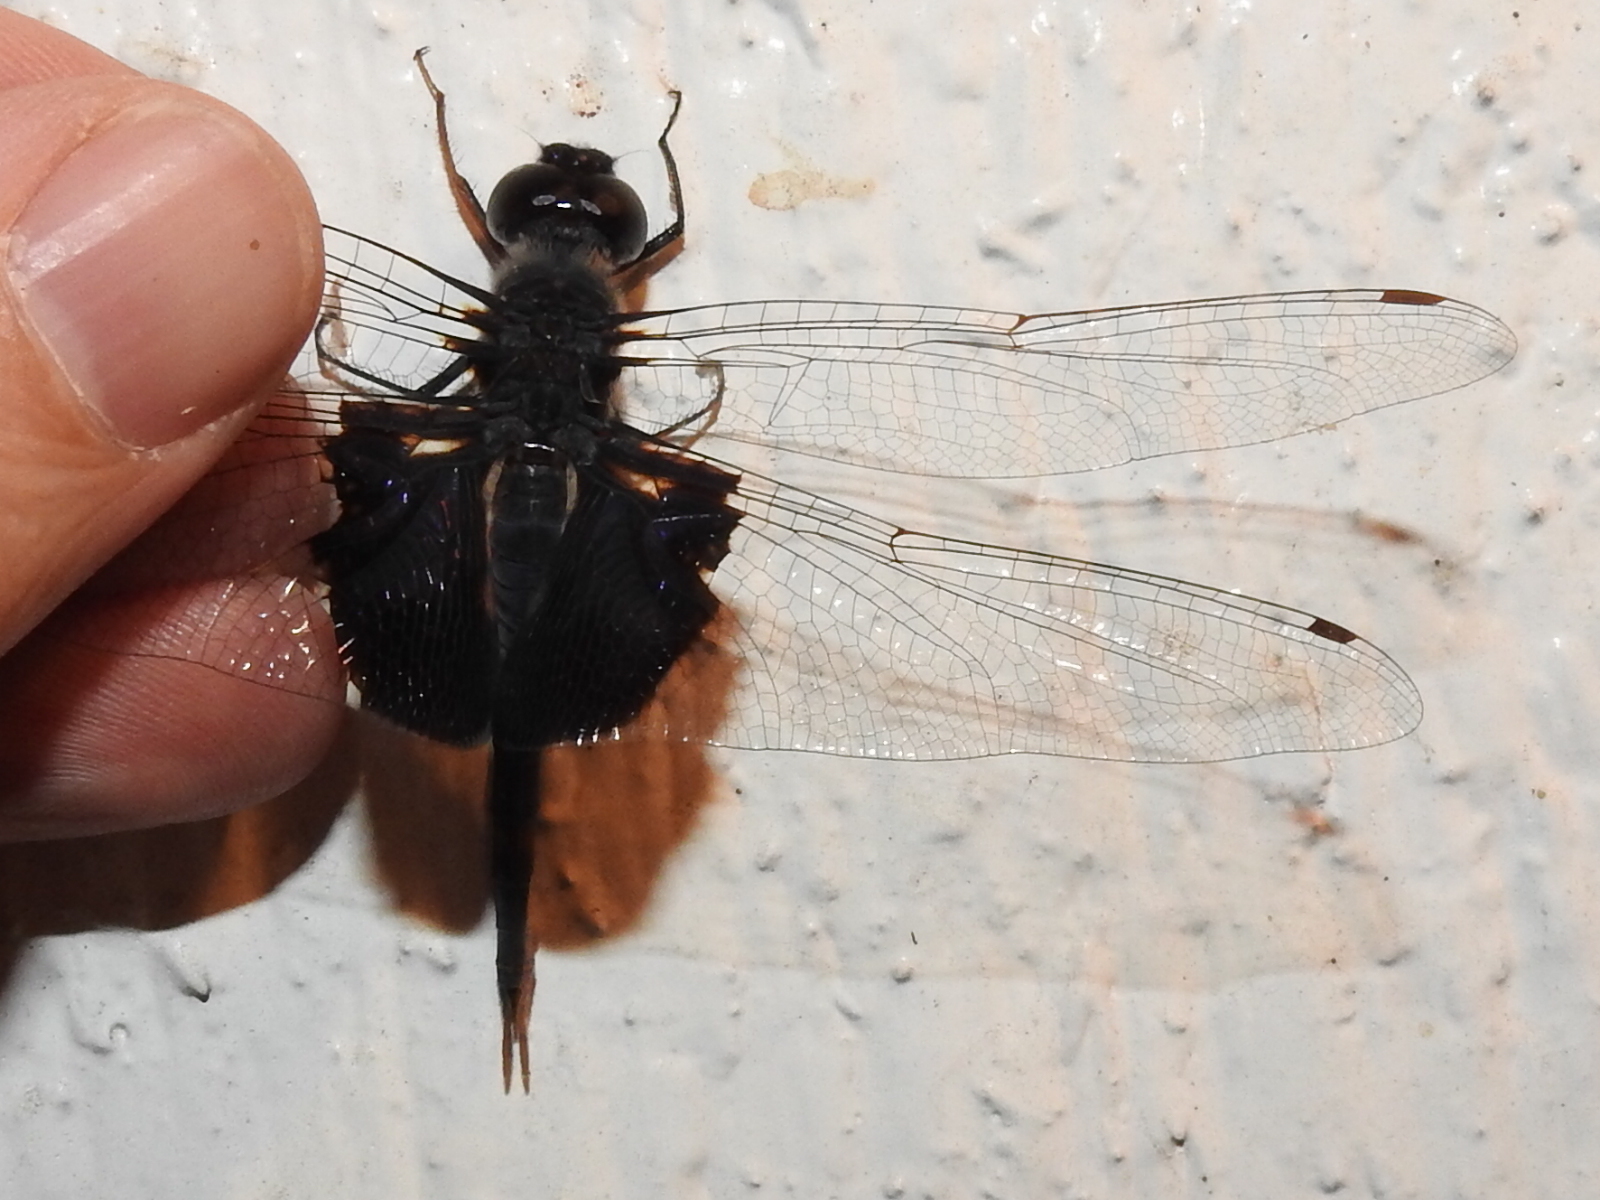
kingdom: Animalia
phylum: Arthropoda
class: Insecta
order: Odonata
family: Libellulidae
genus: Tramea
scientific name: Tramea lacerata
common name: Black saddlebags
